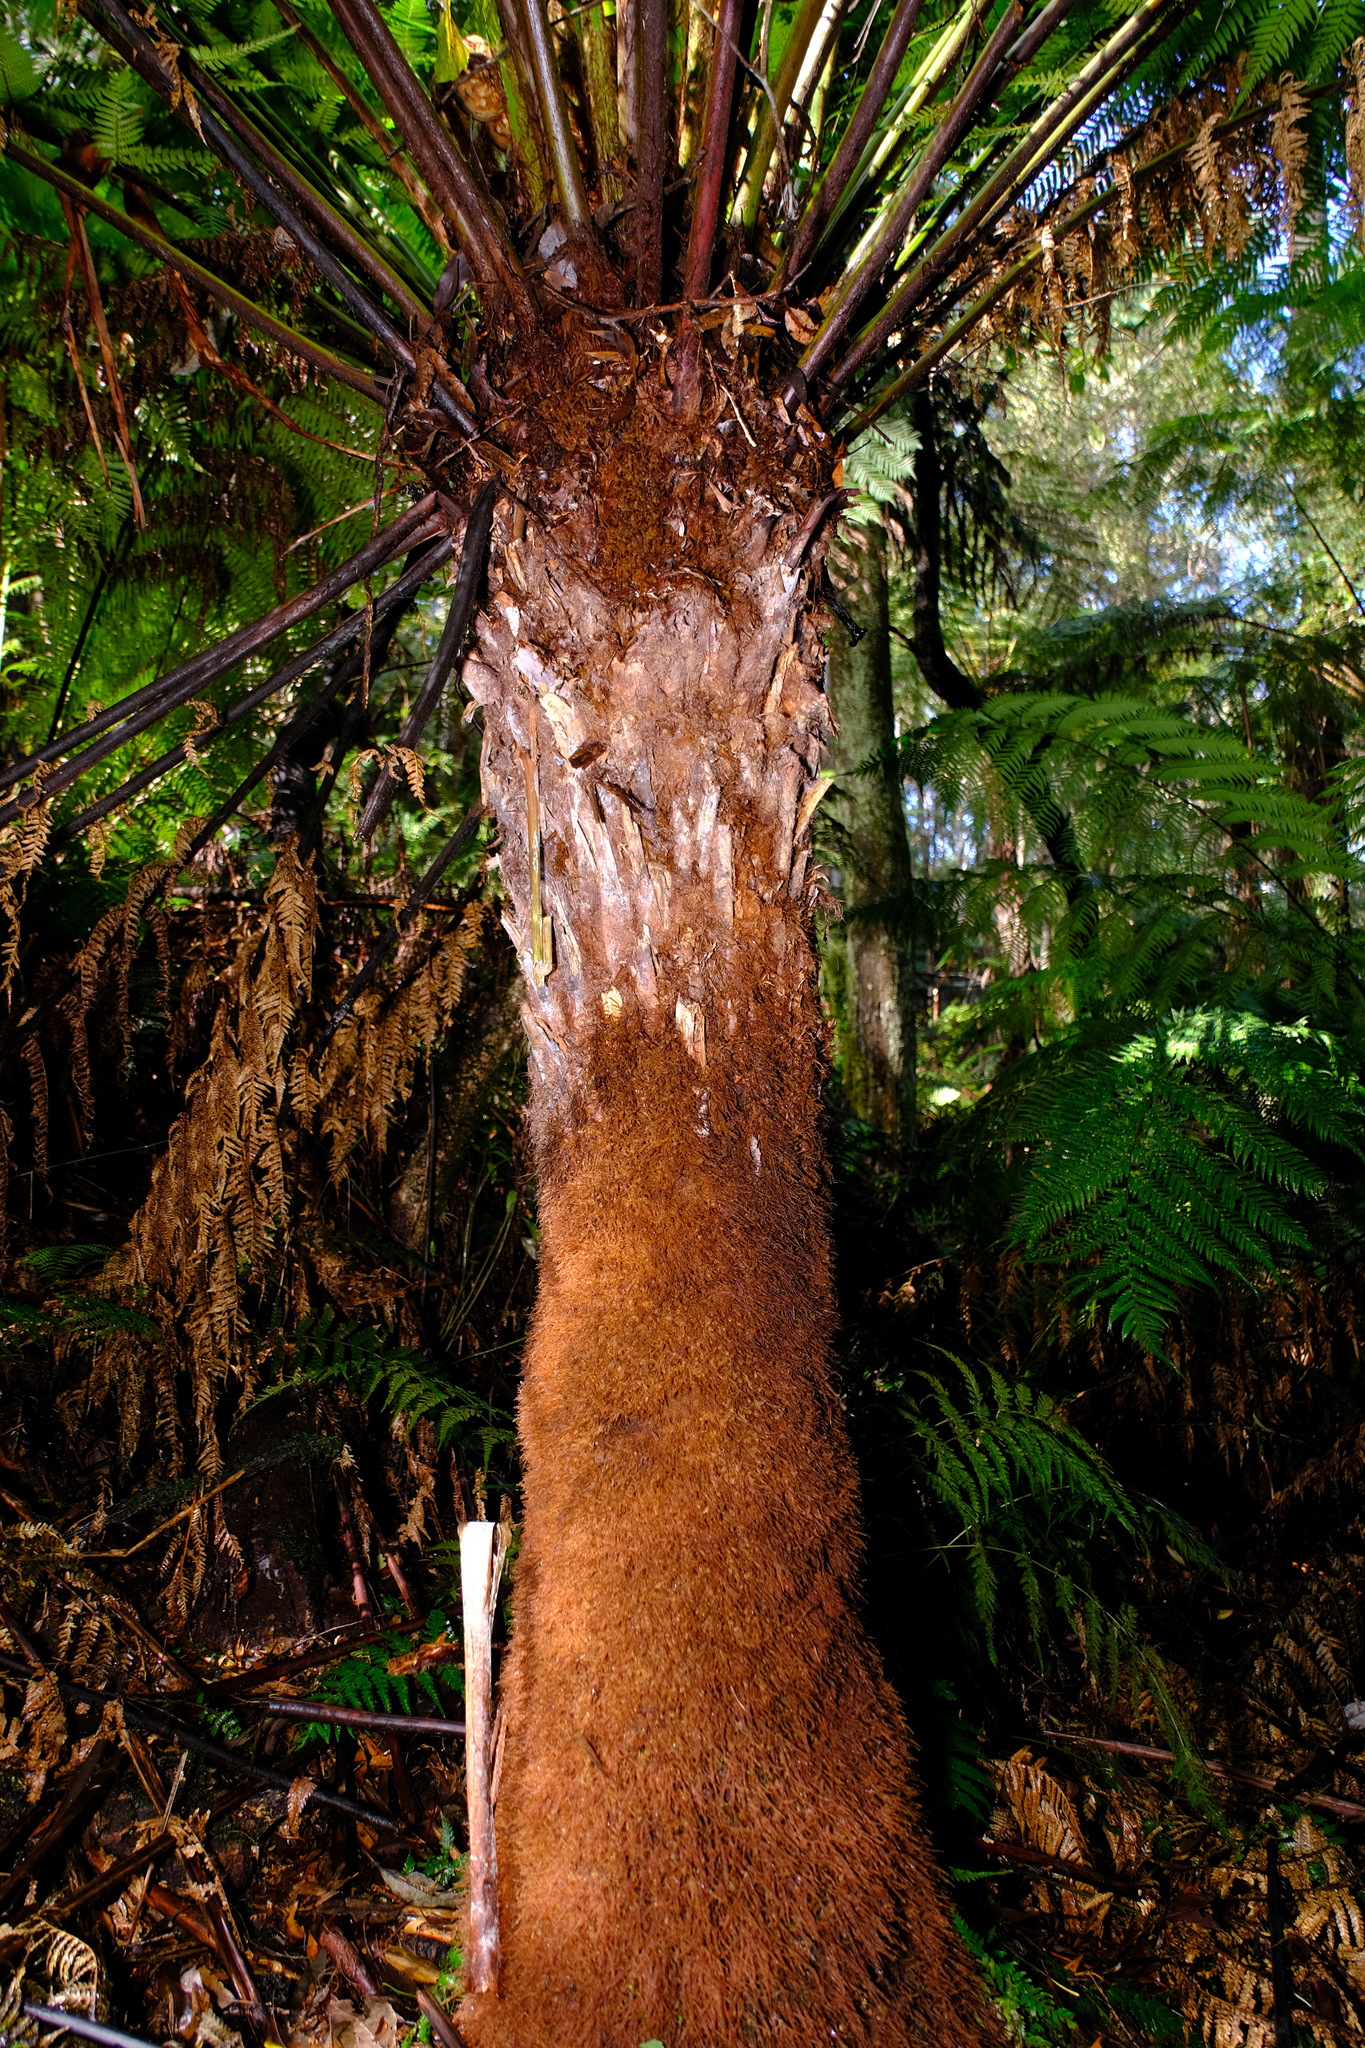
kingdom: Plantae
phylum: Tracheophyta
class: Polypodiopsida
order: Cyatheales
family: Dicksoniaceae
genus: Dicksonia
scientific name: Dicksonia antarctica
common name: Australian treefern
